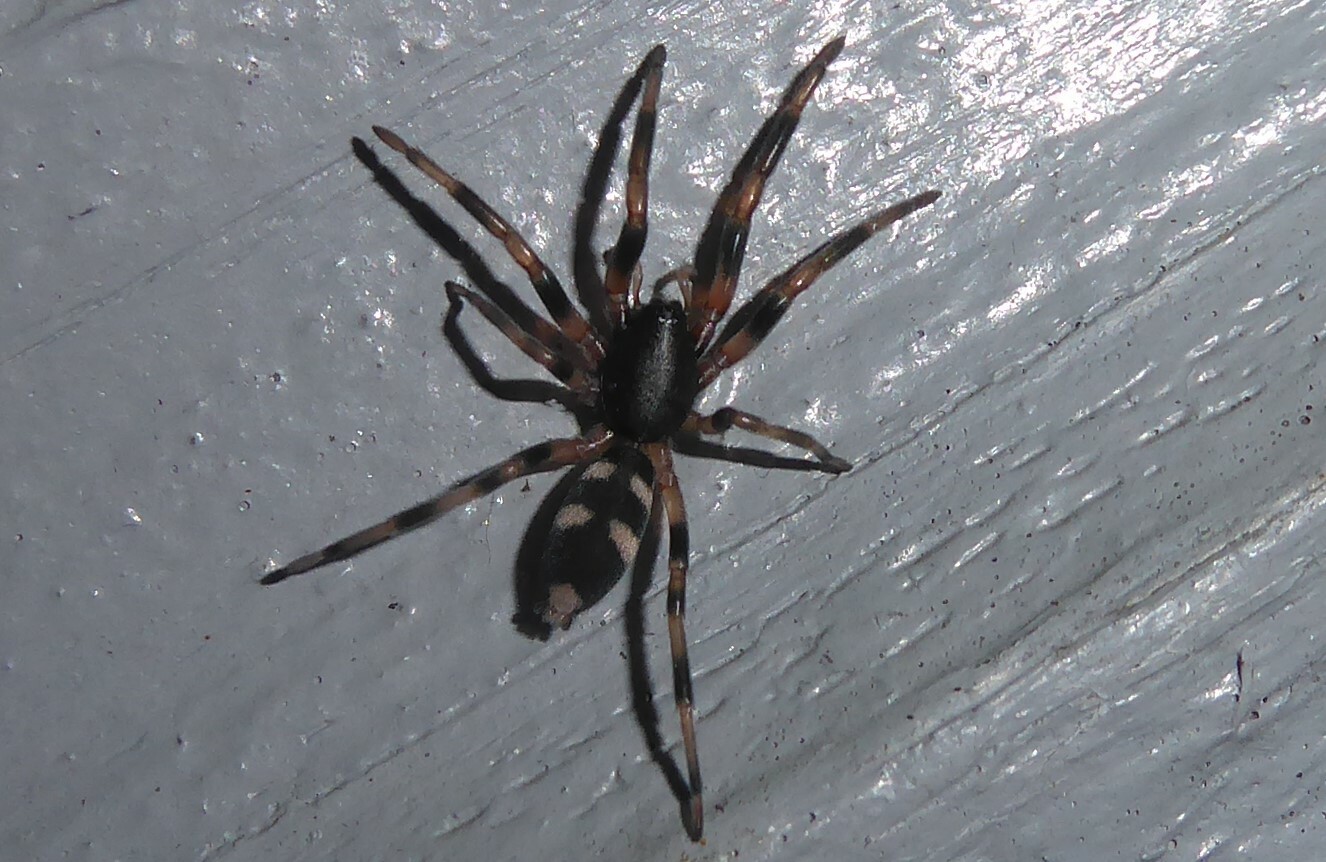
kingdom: Animalia
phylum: Arthropoda
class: Arachnida
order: Araneae
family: Lamponidae
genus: Lampona
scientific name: Lampona cylindrata
